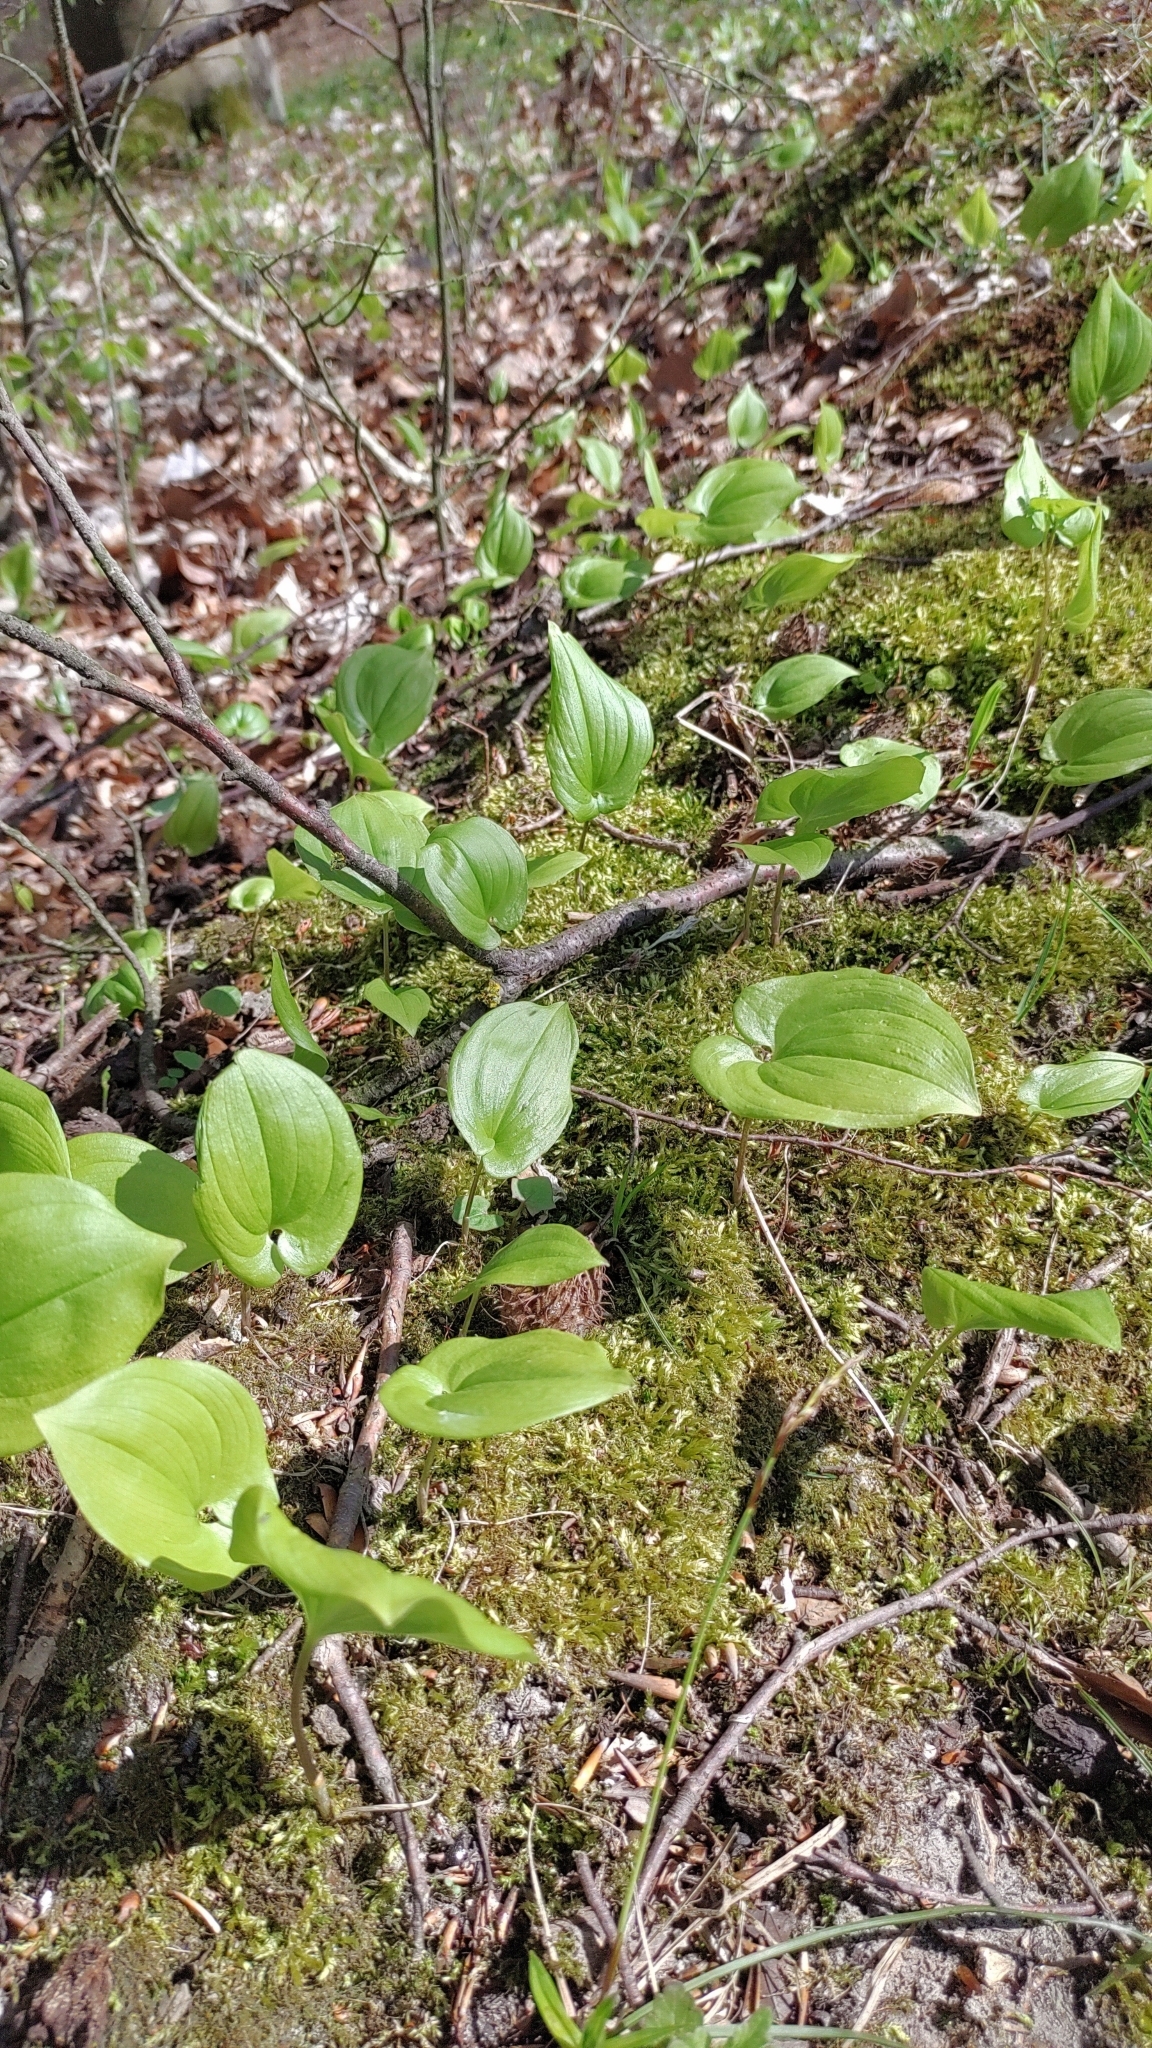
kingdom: Plantae
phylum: Tracheophyta
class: Liliopsida
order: Asparagales
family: Asparagaceae
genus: Maianthemum
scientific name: Maianthemum bifolium
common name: May lily
